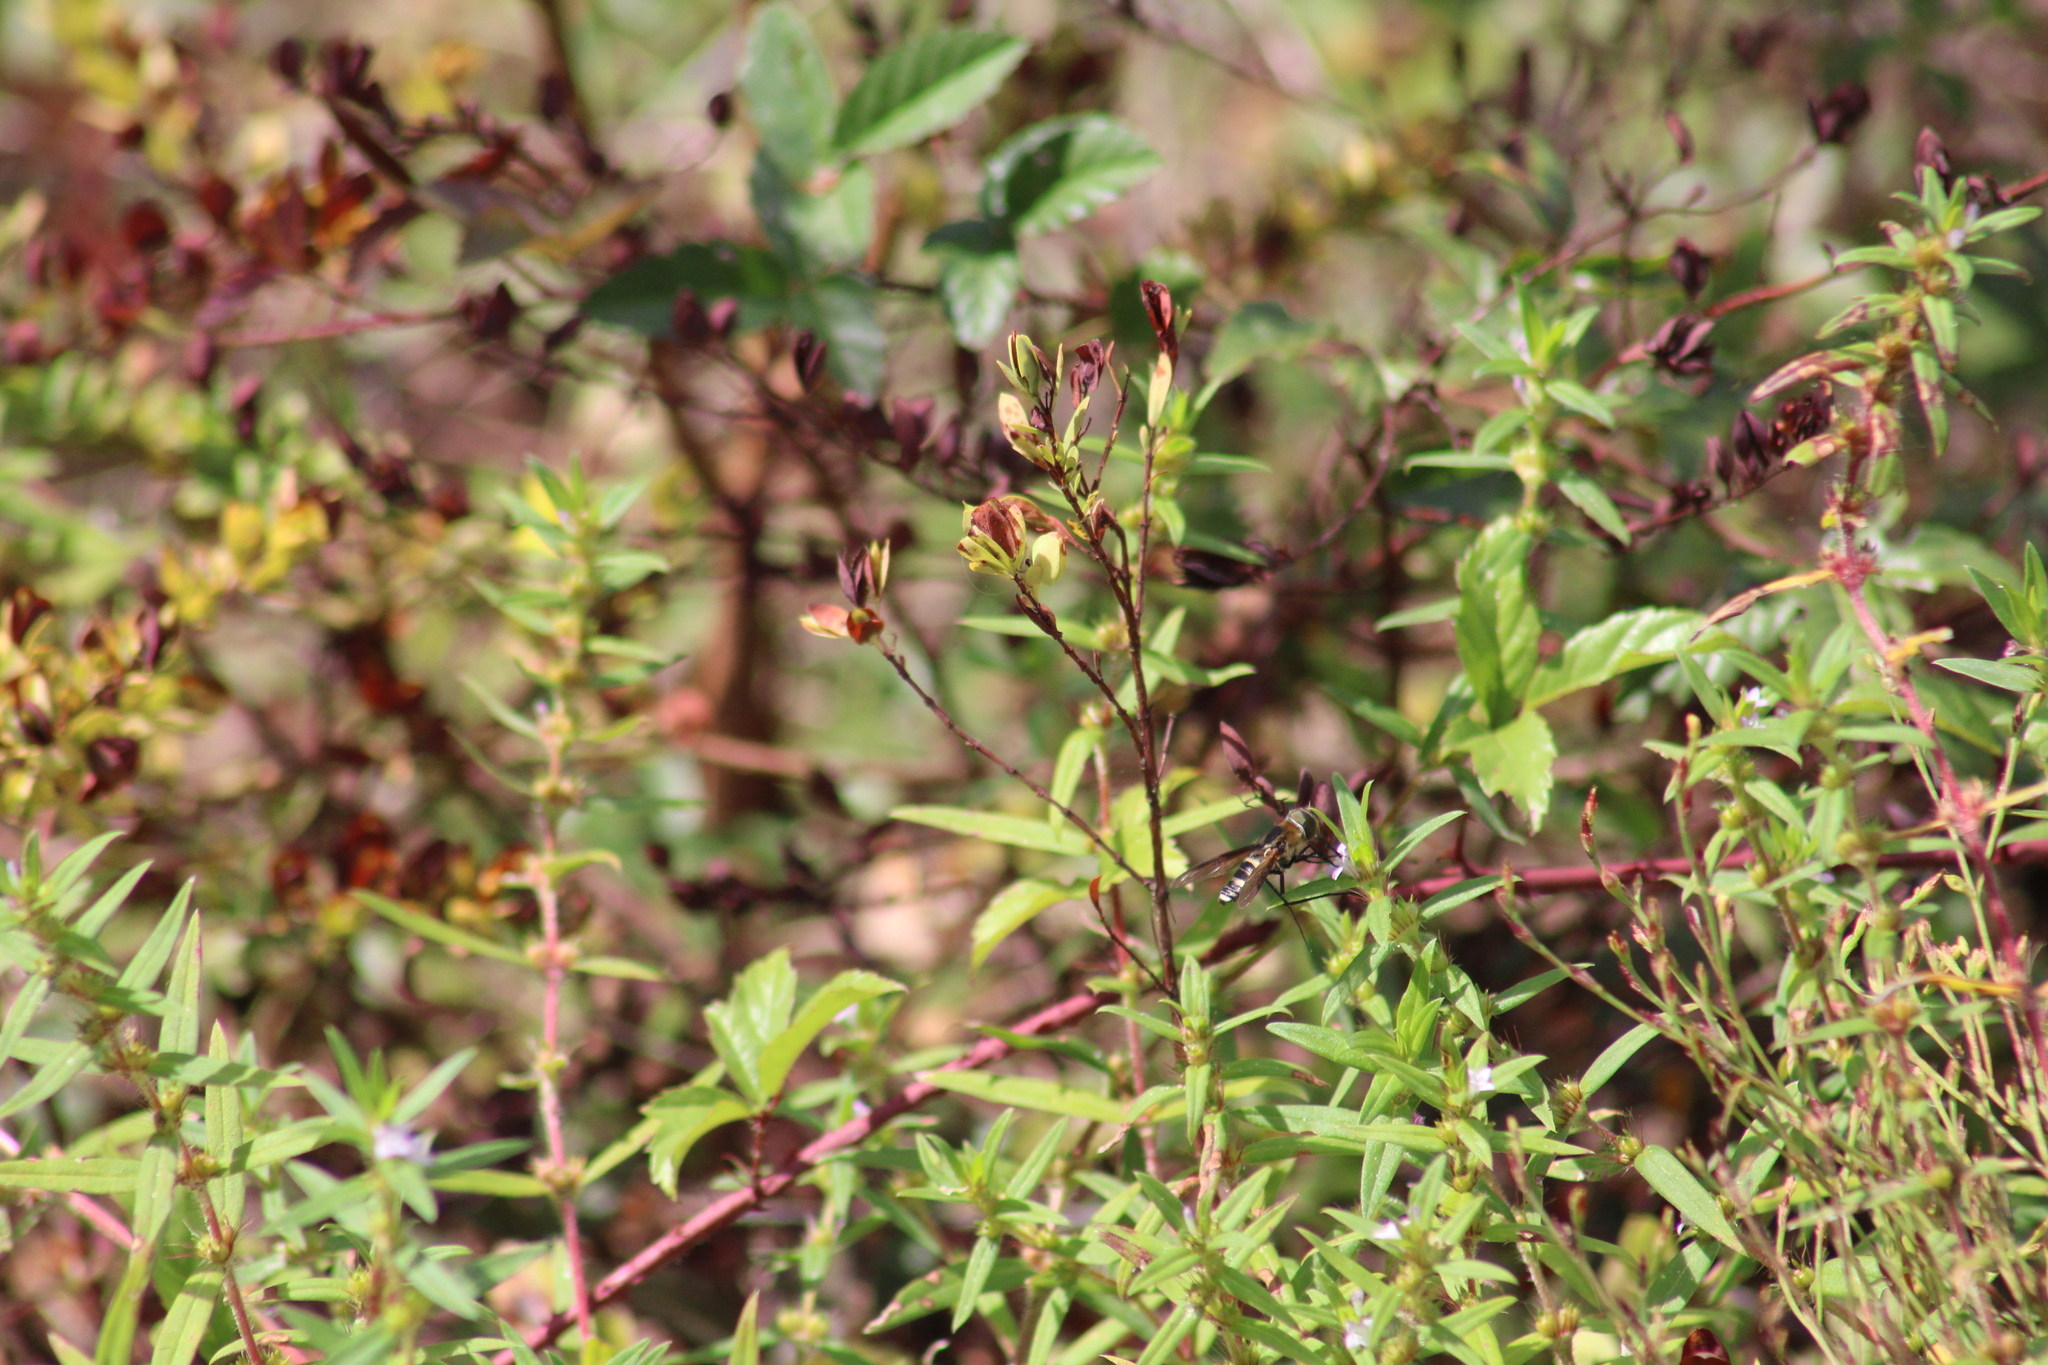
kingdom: Animalia
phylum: Arthropoda
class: Insecta
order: Diptera
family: Bombyliidae
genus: Exoprosopa
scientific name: Exoprosopa fasciata
